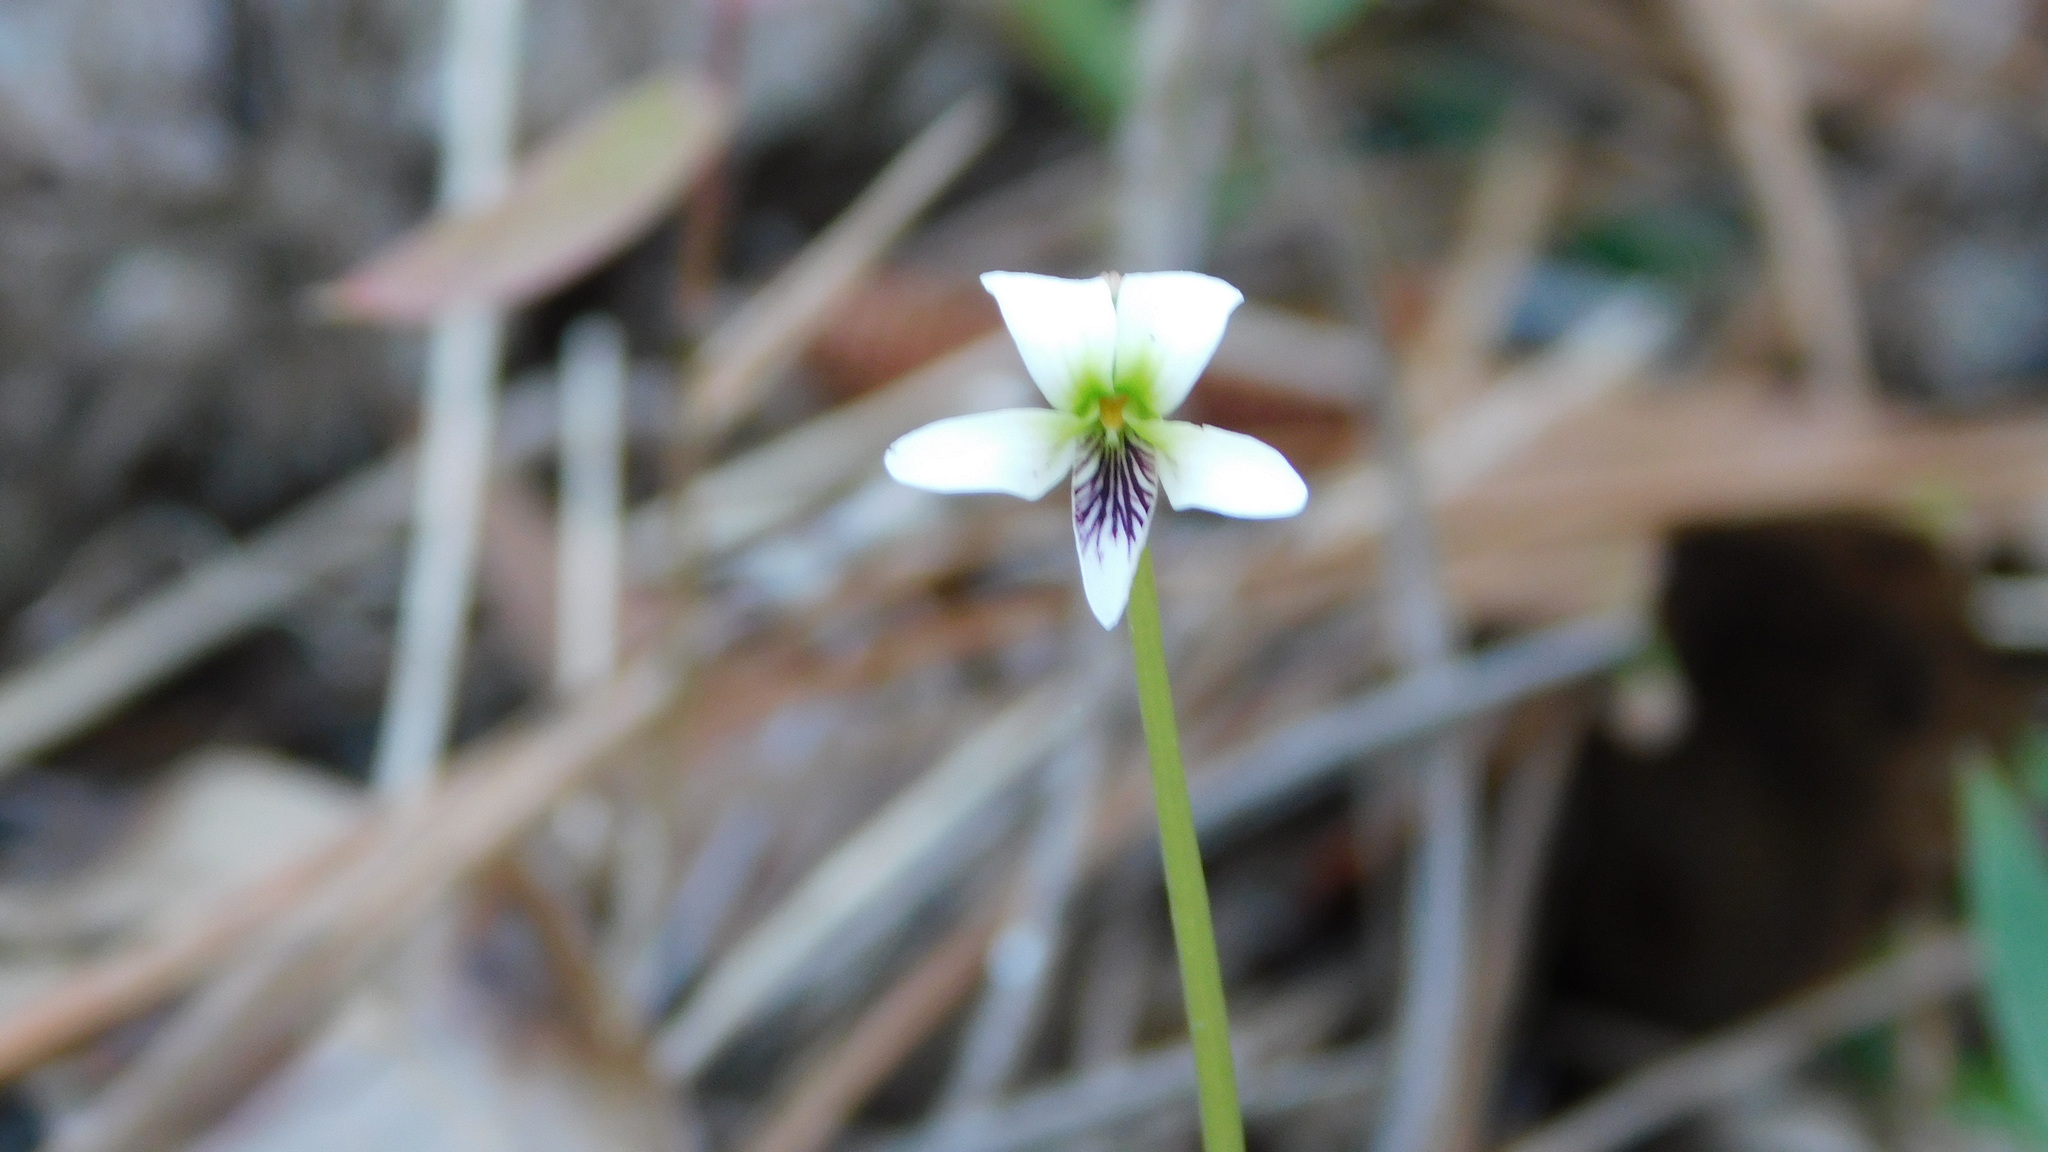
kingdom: Plantae
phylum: Tracheophyta
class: Magnoliopsida
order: Malpighiales
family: Violaceae
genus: Viola
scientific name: Viola lanceolata
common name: Bog white violet
